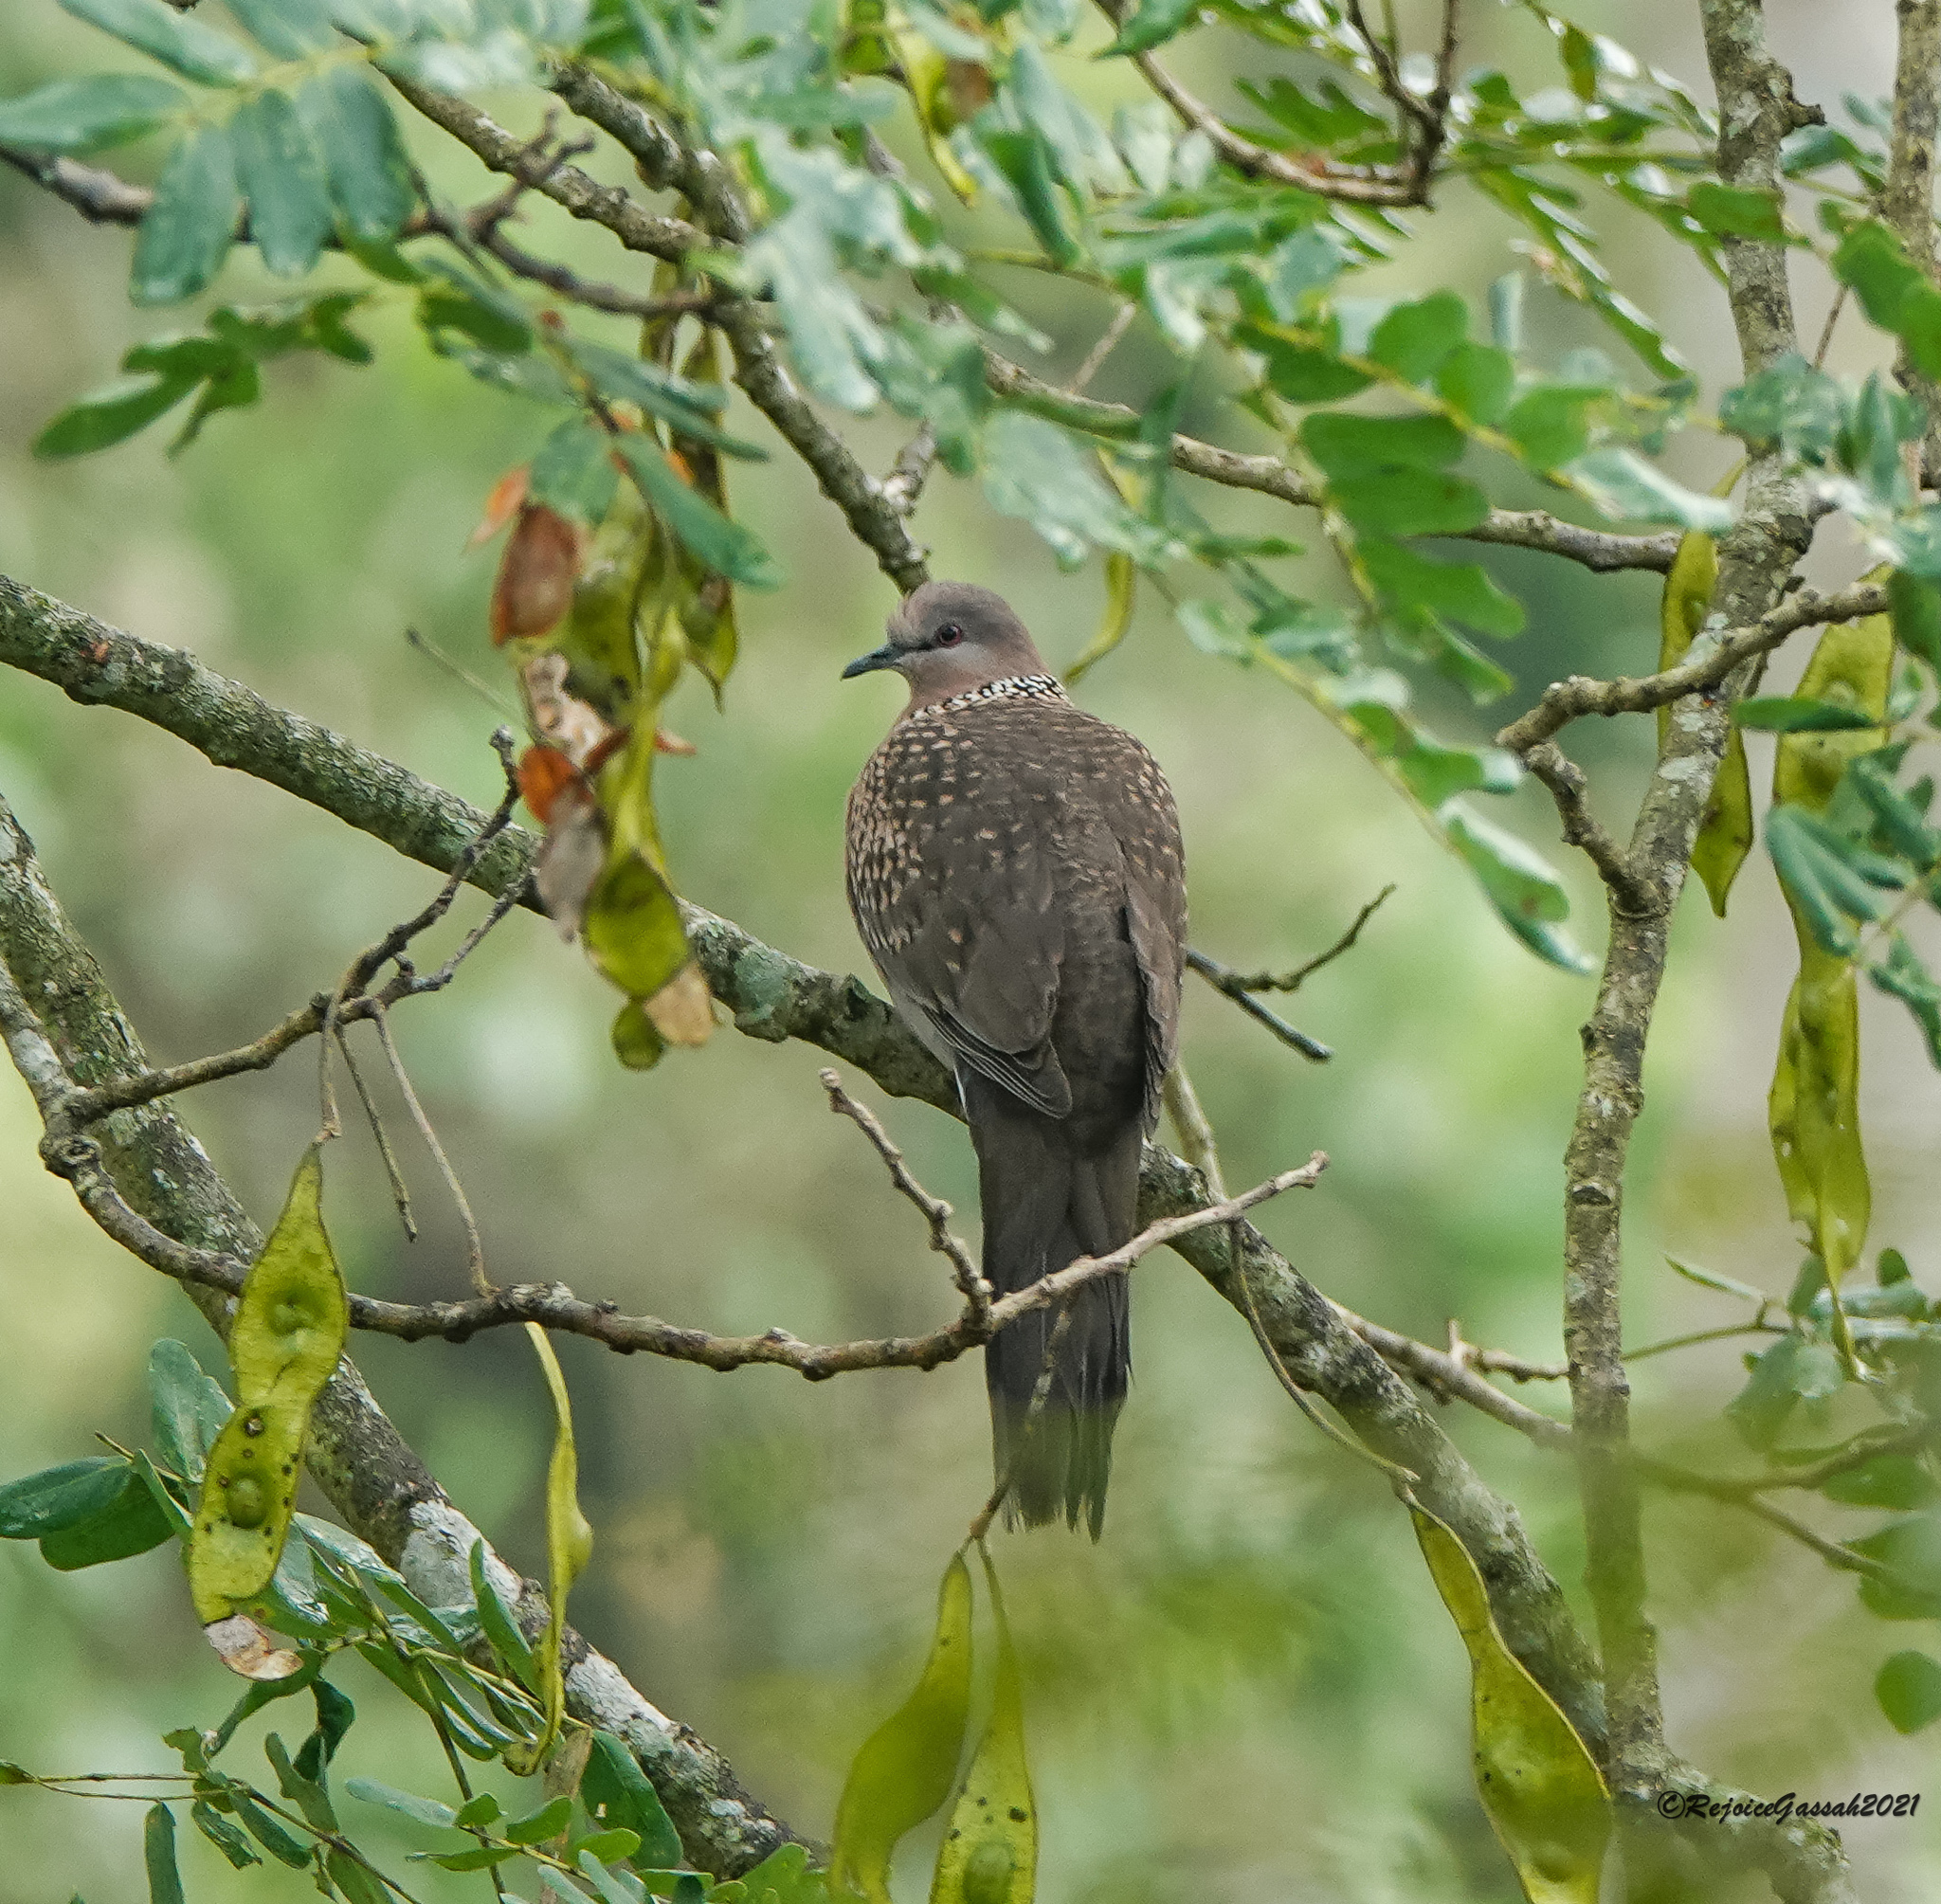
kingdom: Animalia
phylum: Chordata
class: Aves
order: Columbiformes
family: Columbidae
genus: Spilopelia
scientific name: Spilopelia chinensis
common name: Spotted dove
